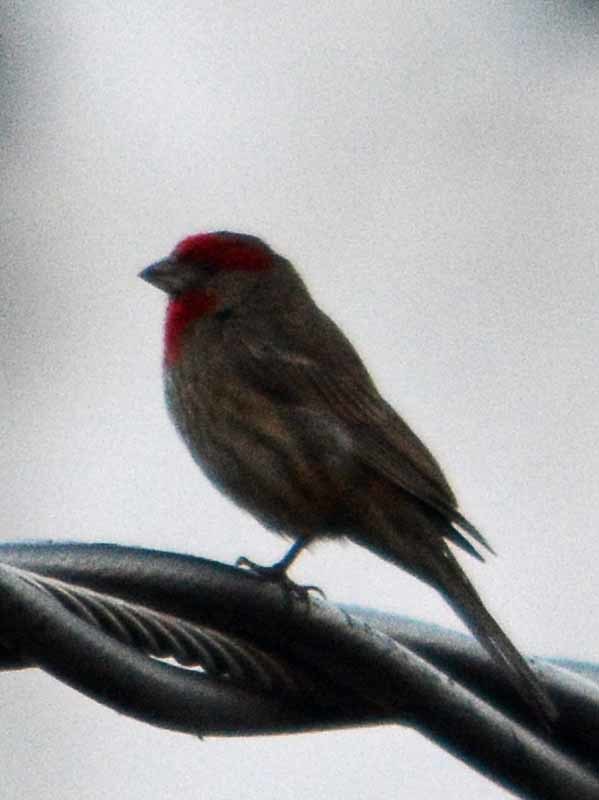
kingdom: Animalia
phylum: Chordata
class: Aves
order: Passeriformes
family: Fringillidae
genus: Haemorhous
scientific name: Haemorhous mexicanus
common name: House finch
